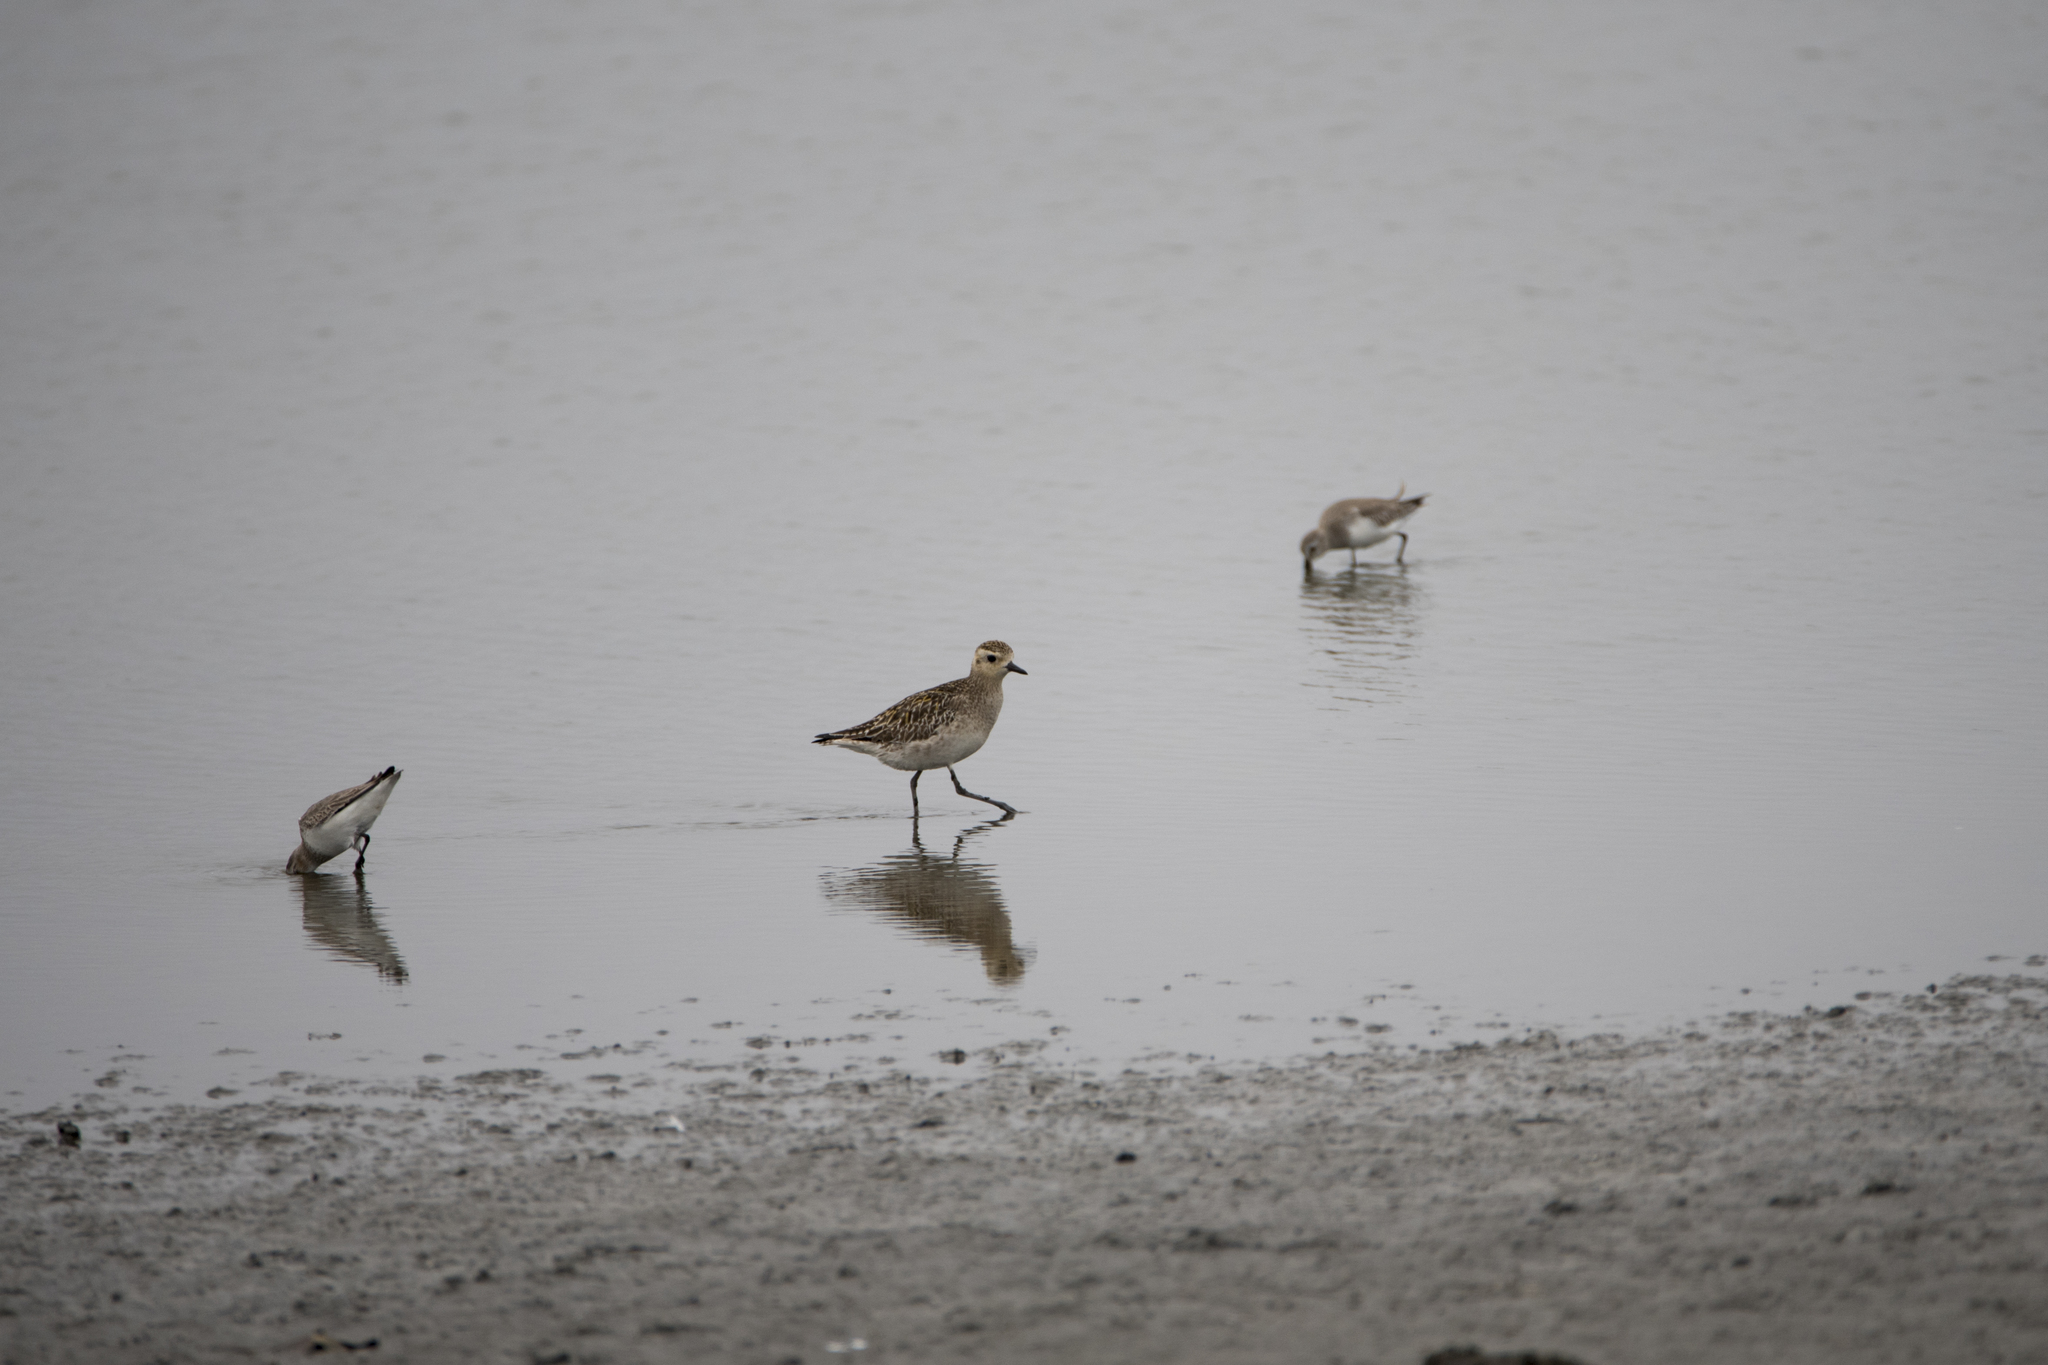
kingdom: Animalia
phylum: Chordata
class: Aves
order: Charadriiformes
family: Charadriidae
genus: Pluvialis
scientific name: Pluvialis fulva
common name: Pacific golden plover
